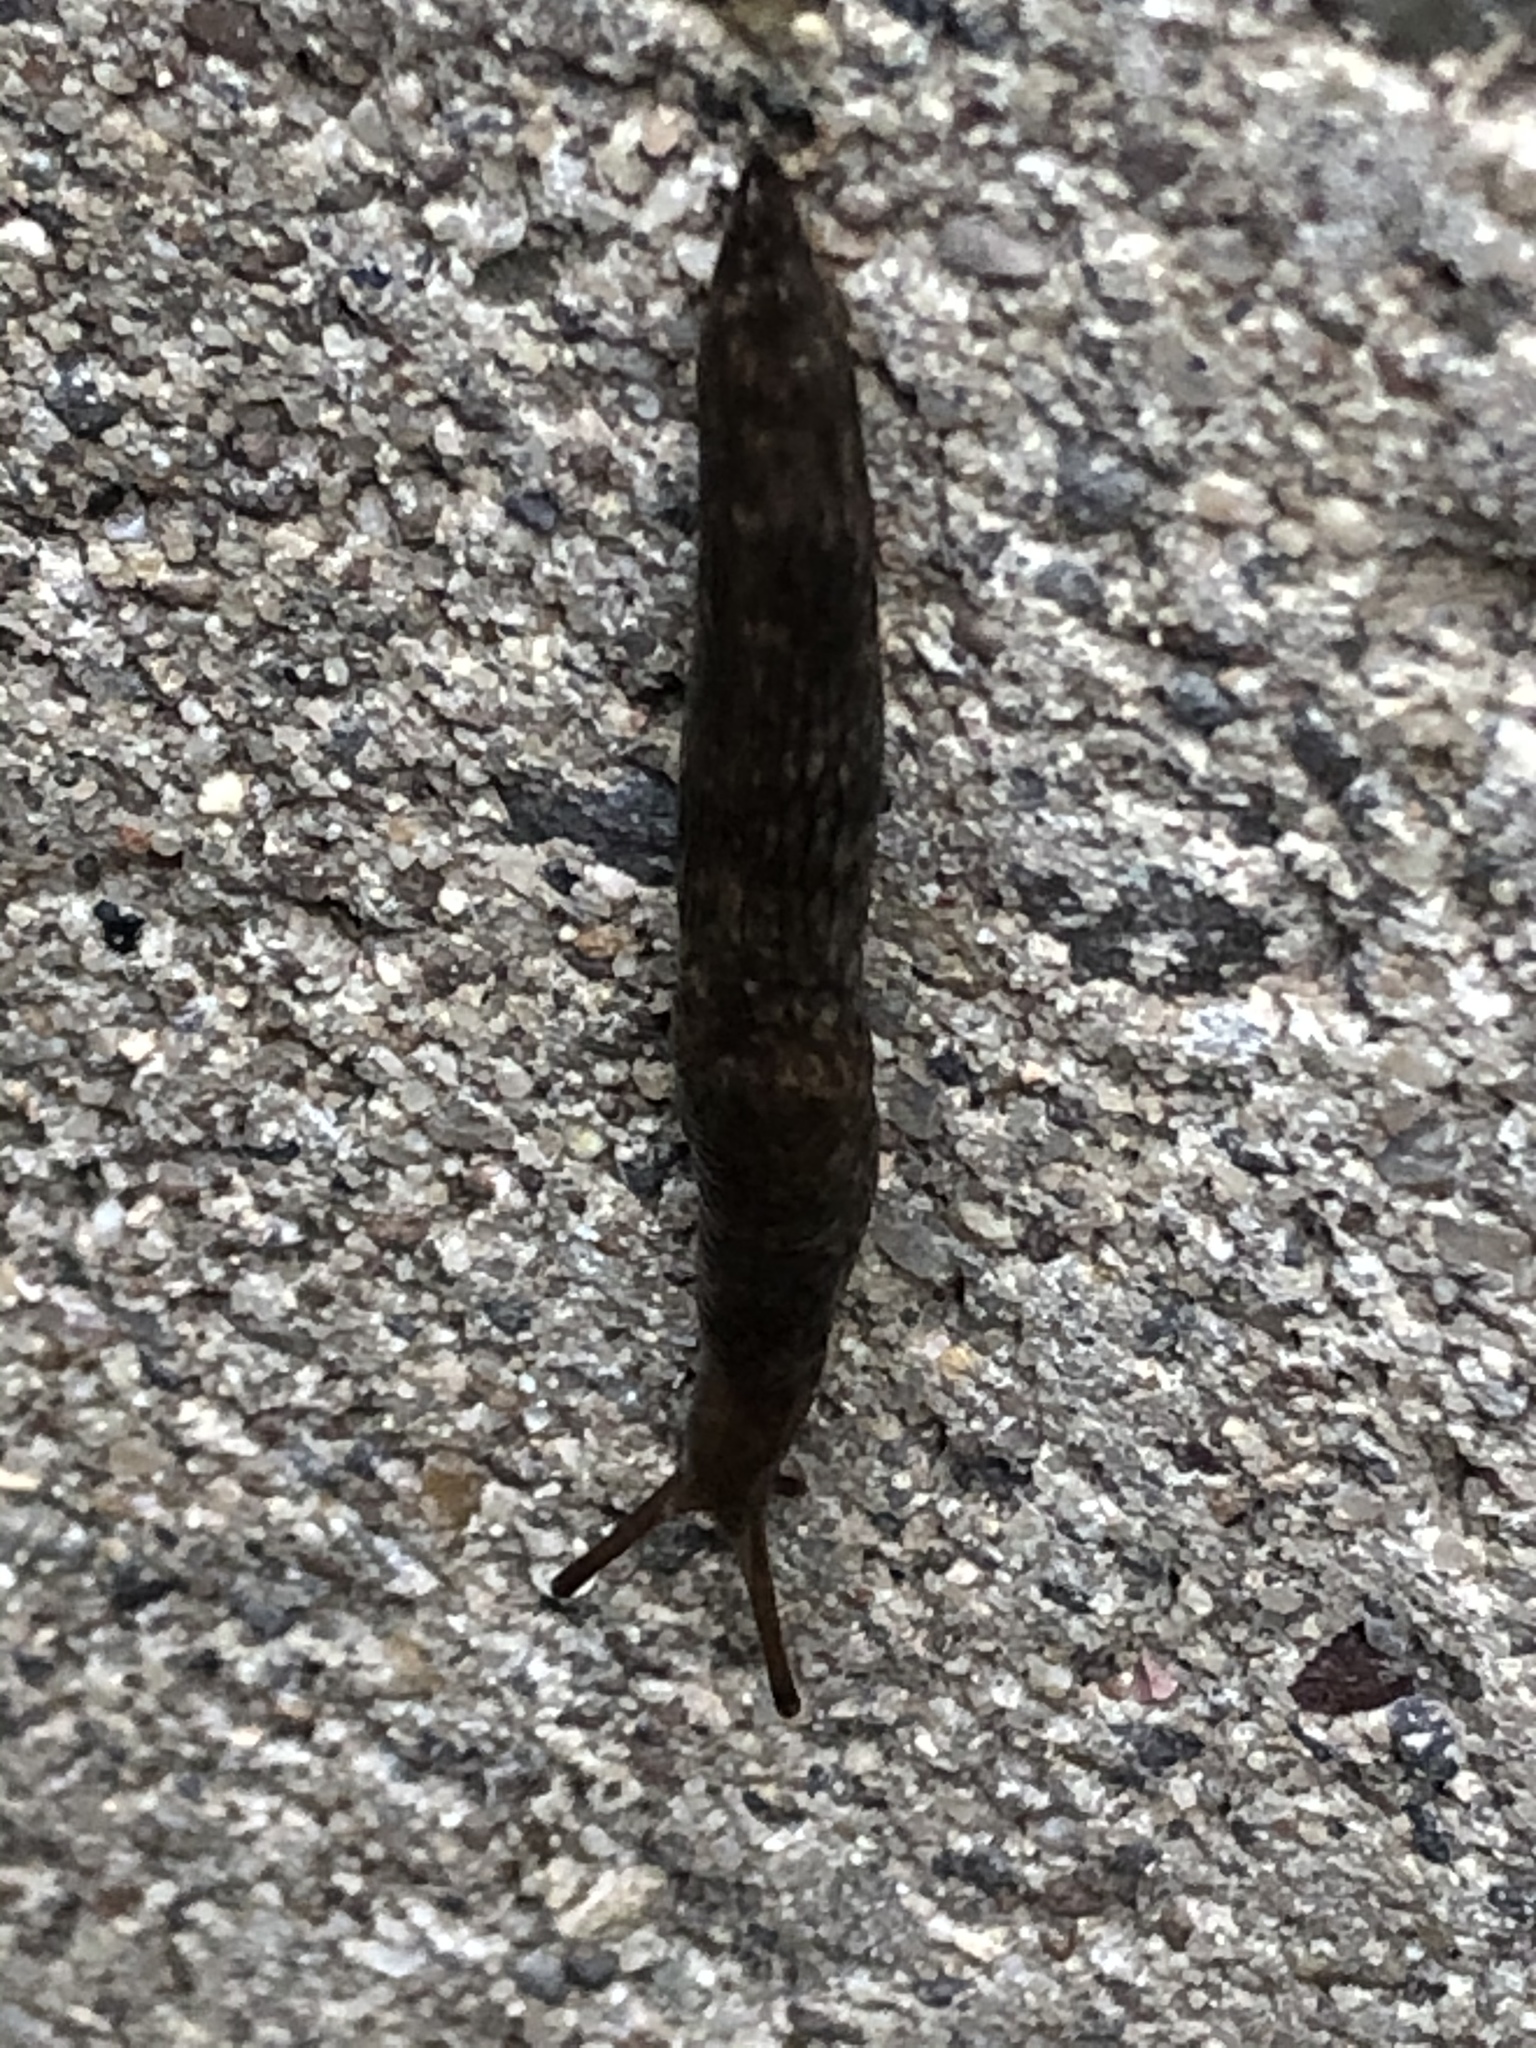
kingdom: Animalia
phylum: Mollusca
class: Gastropoda
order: Stylommatophora
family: Agriolimacidae
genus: Deroceras
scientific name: Deroceras reticulatum
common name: Gray field slug
